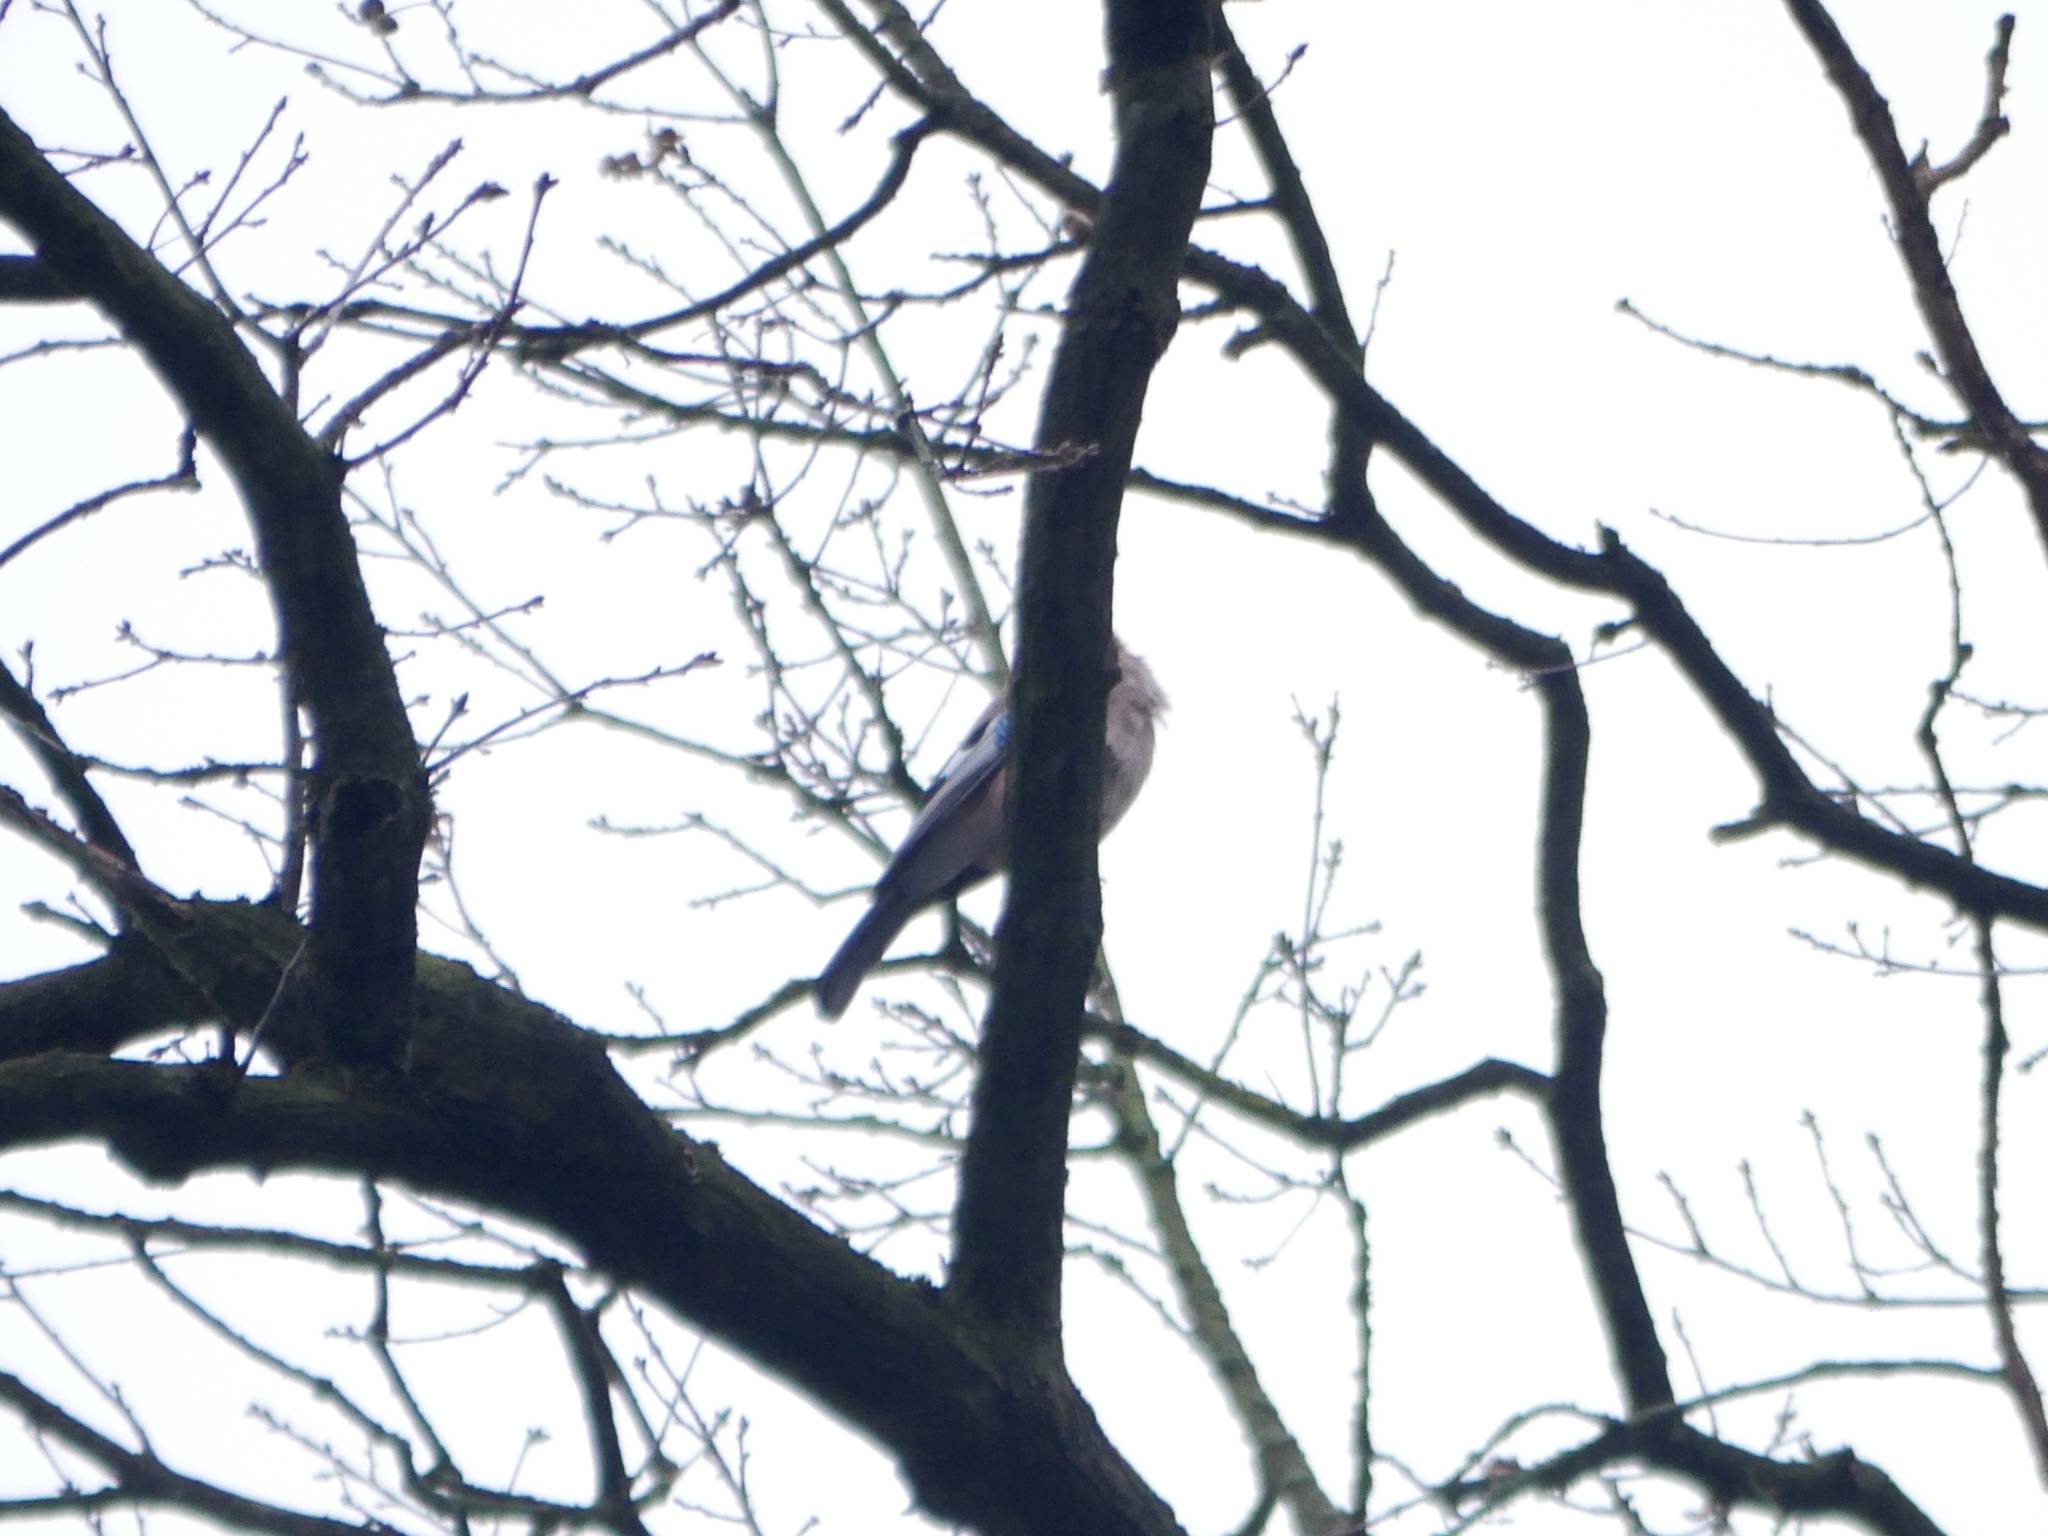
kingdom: Animalia
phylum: Chordata
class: Aves
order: Passeriformes
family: Corvidae
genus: Garrulus
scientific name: Garrulus glandarius
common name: Eurasian jay
